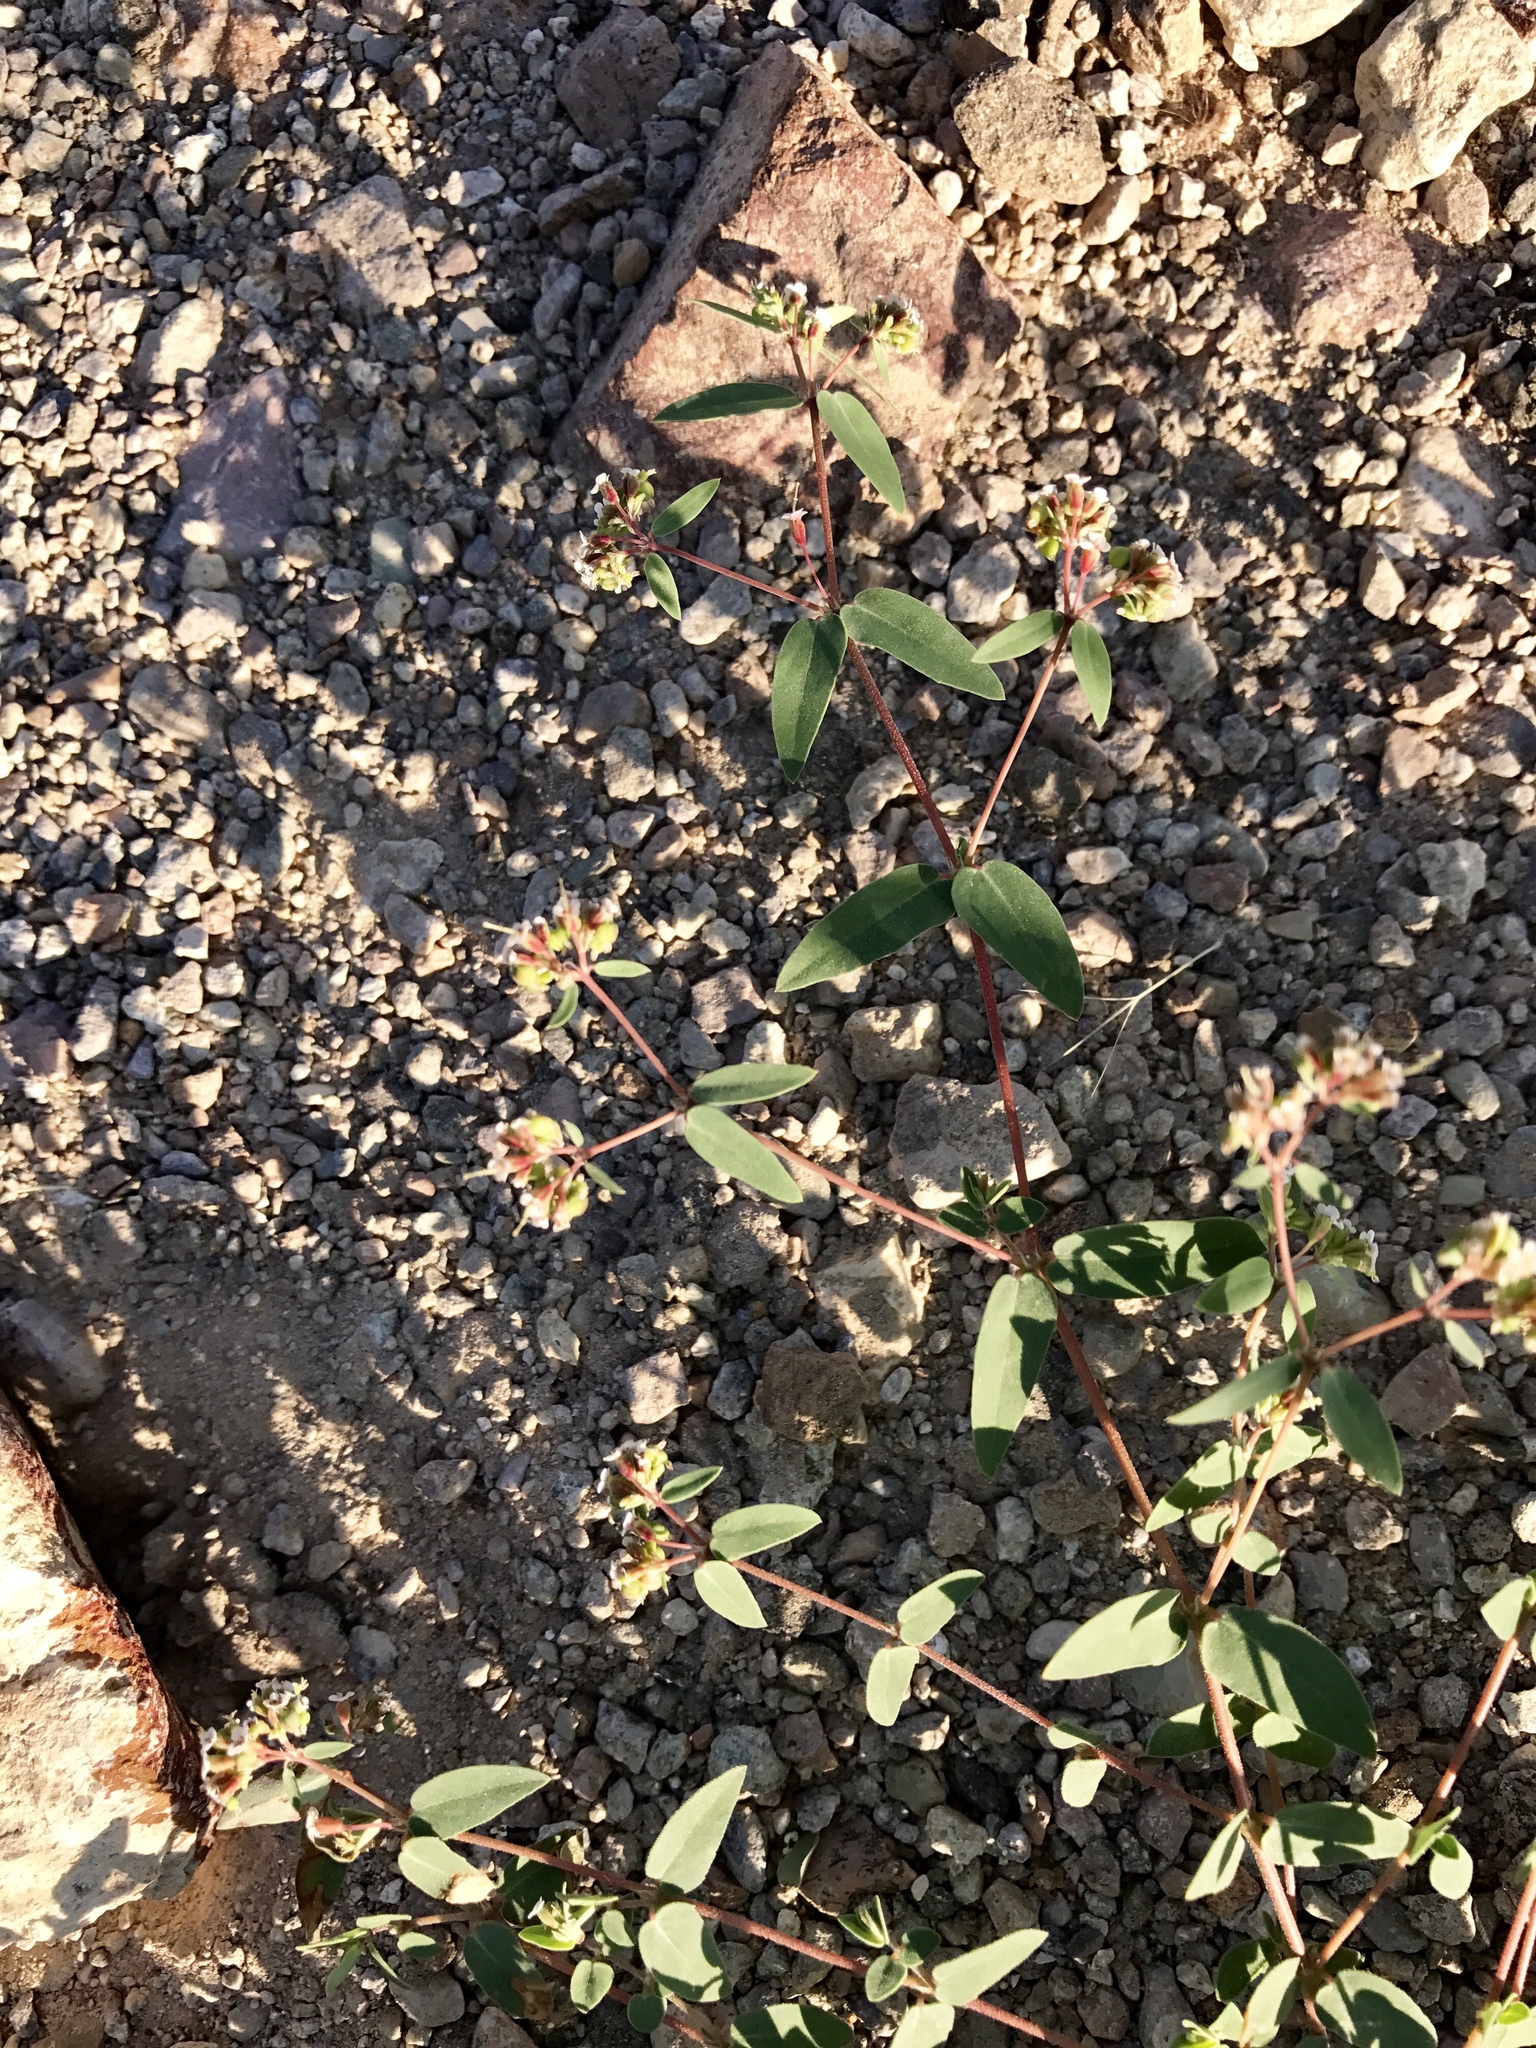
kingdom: Plantae
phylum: Tracheophyta
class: Magnoliopsida
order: Malpighiales
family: Euphorbiaceae
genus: Euphorbia
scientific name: Euphorbia capitellata
